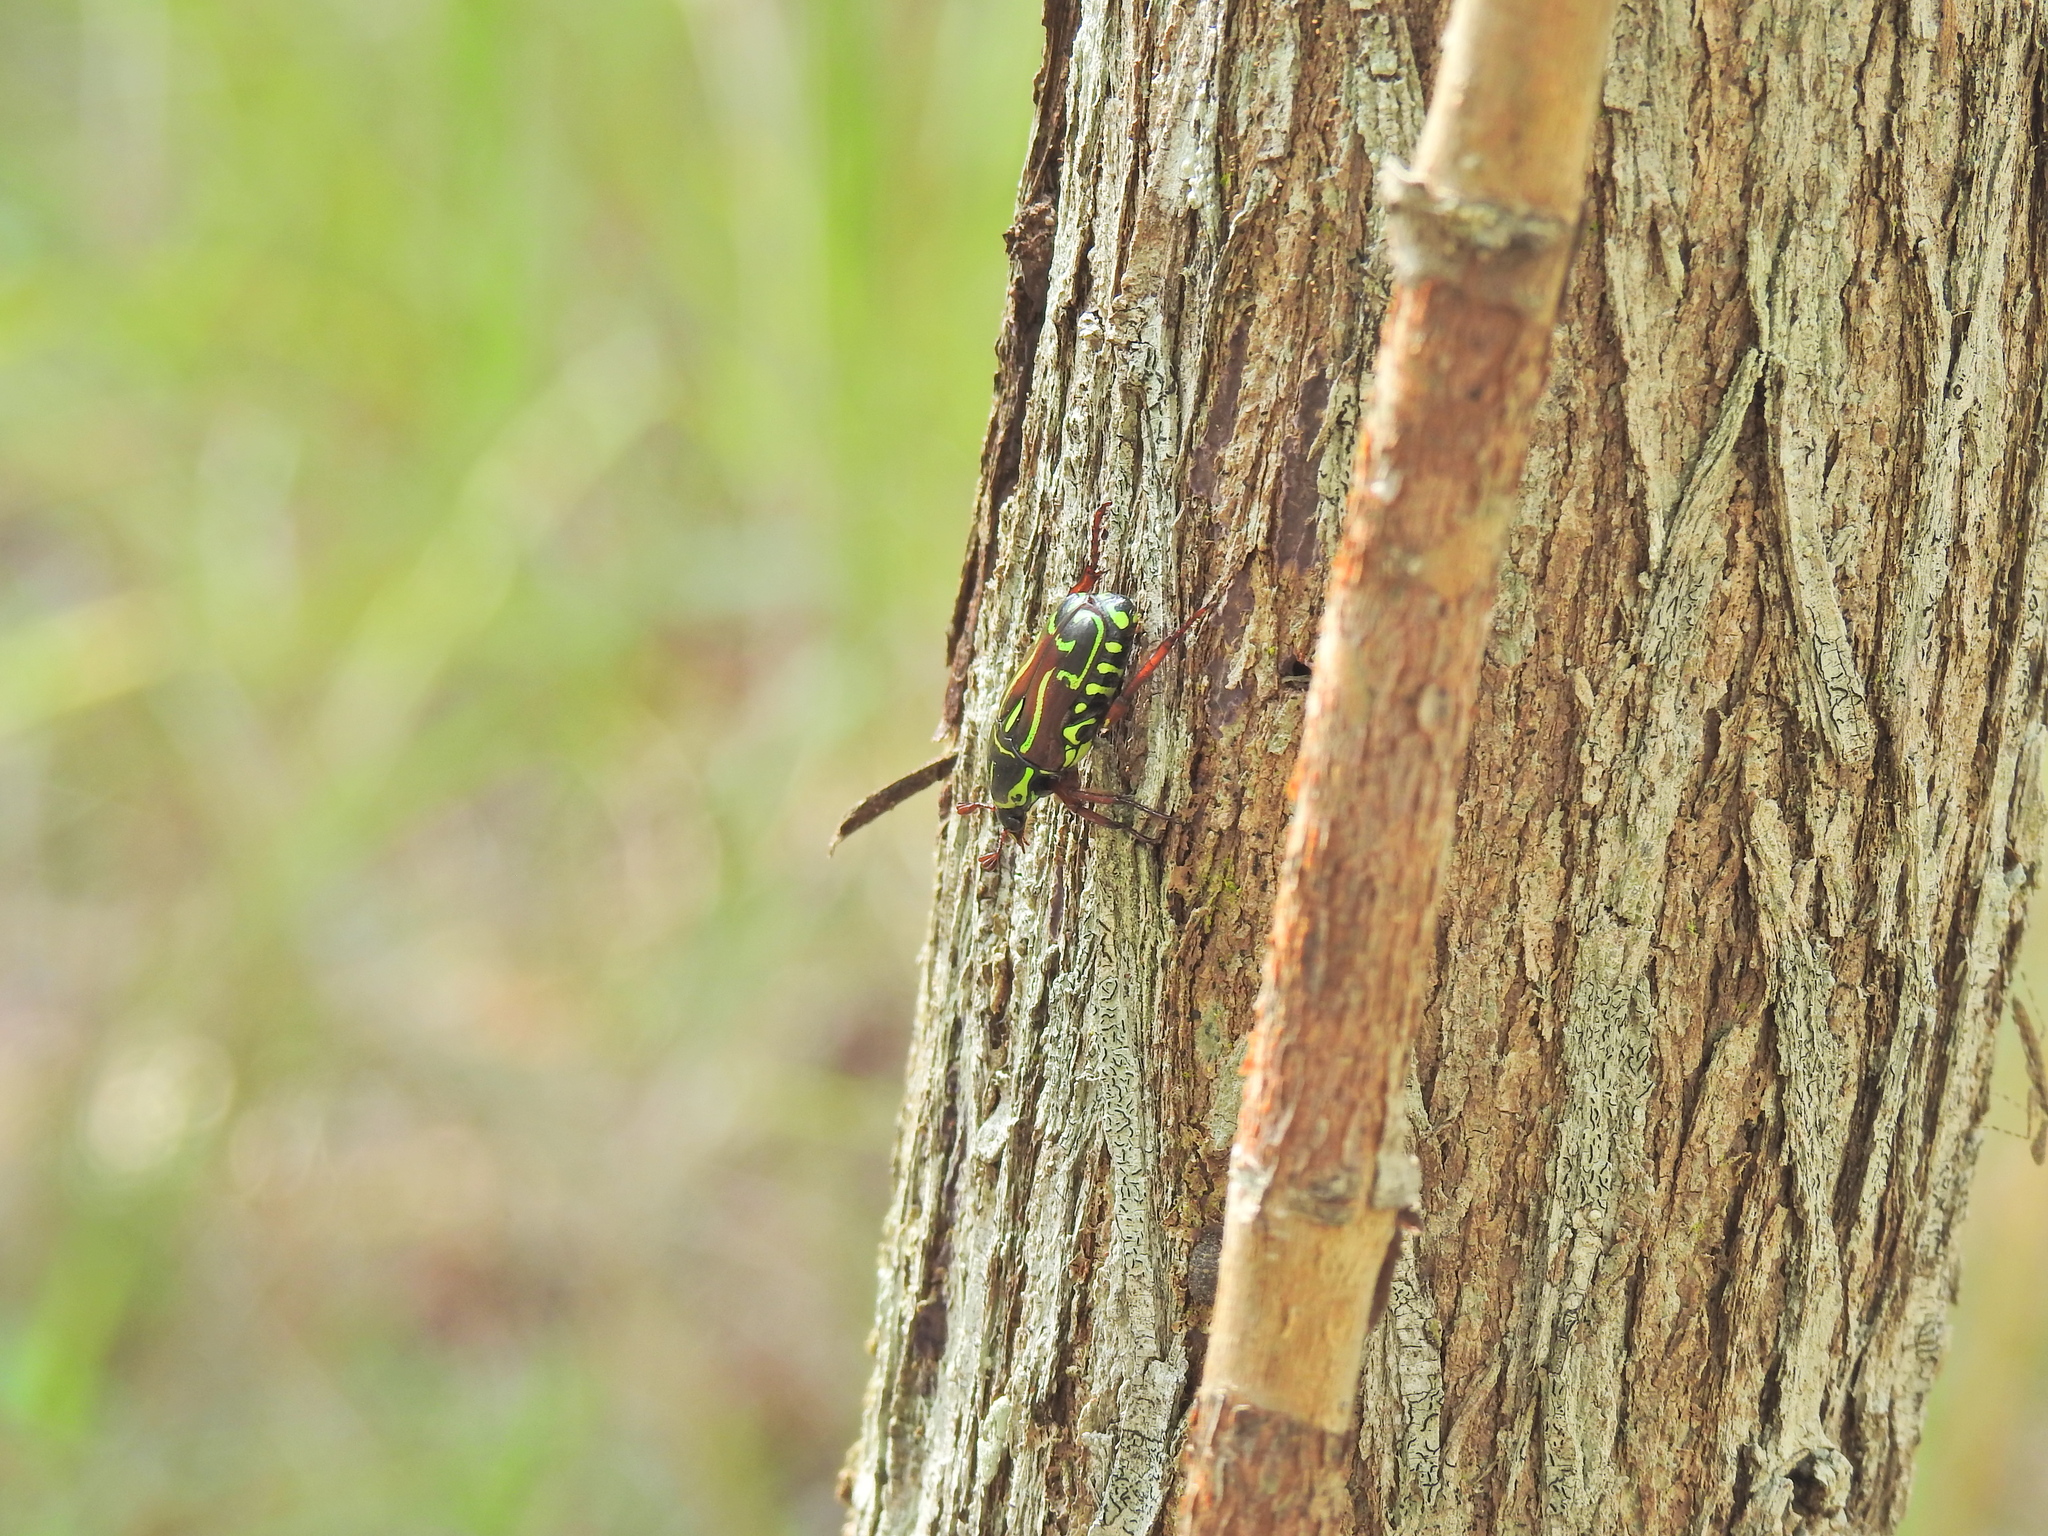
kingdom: Animalia
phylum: Arthropoda
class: Insecta
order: Coleoptera
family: Scarabaeidae
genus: Eupoecila
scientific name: Eupoecila australasiae
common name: Fiddler beetle
